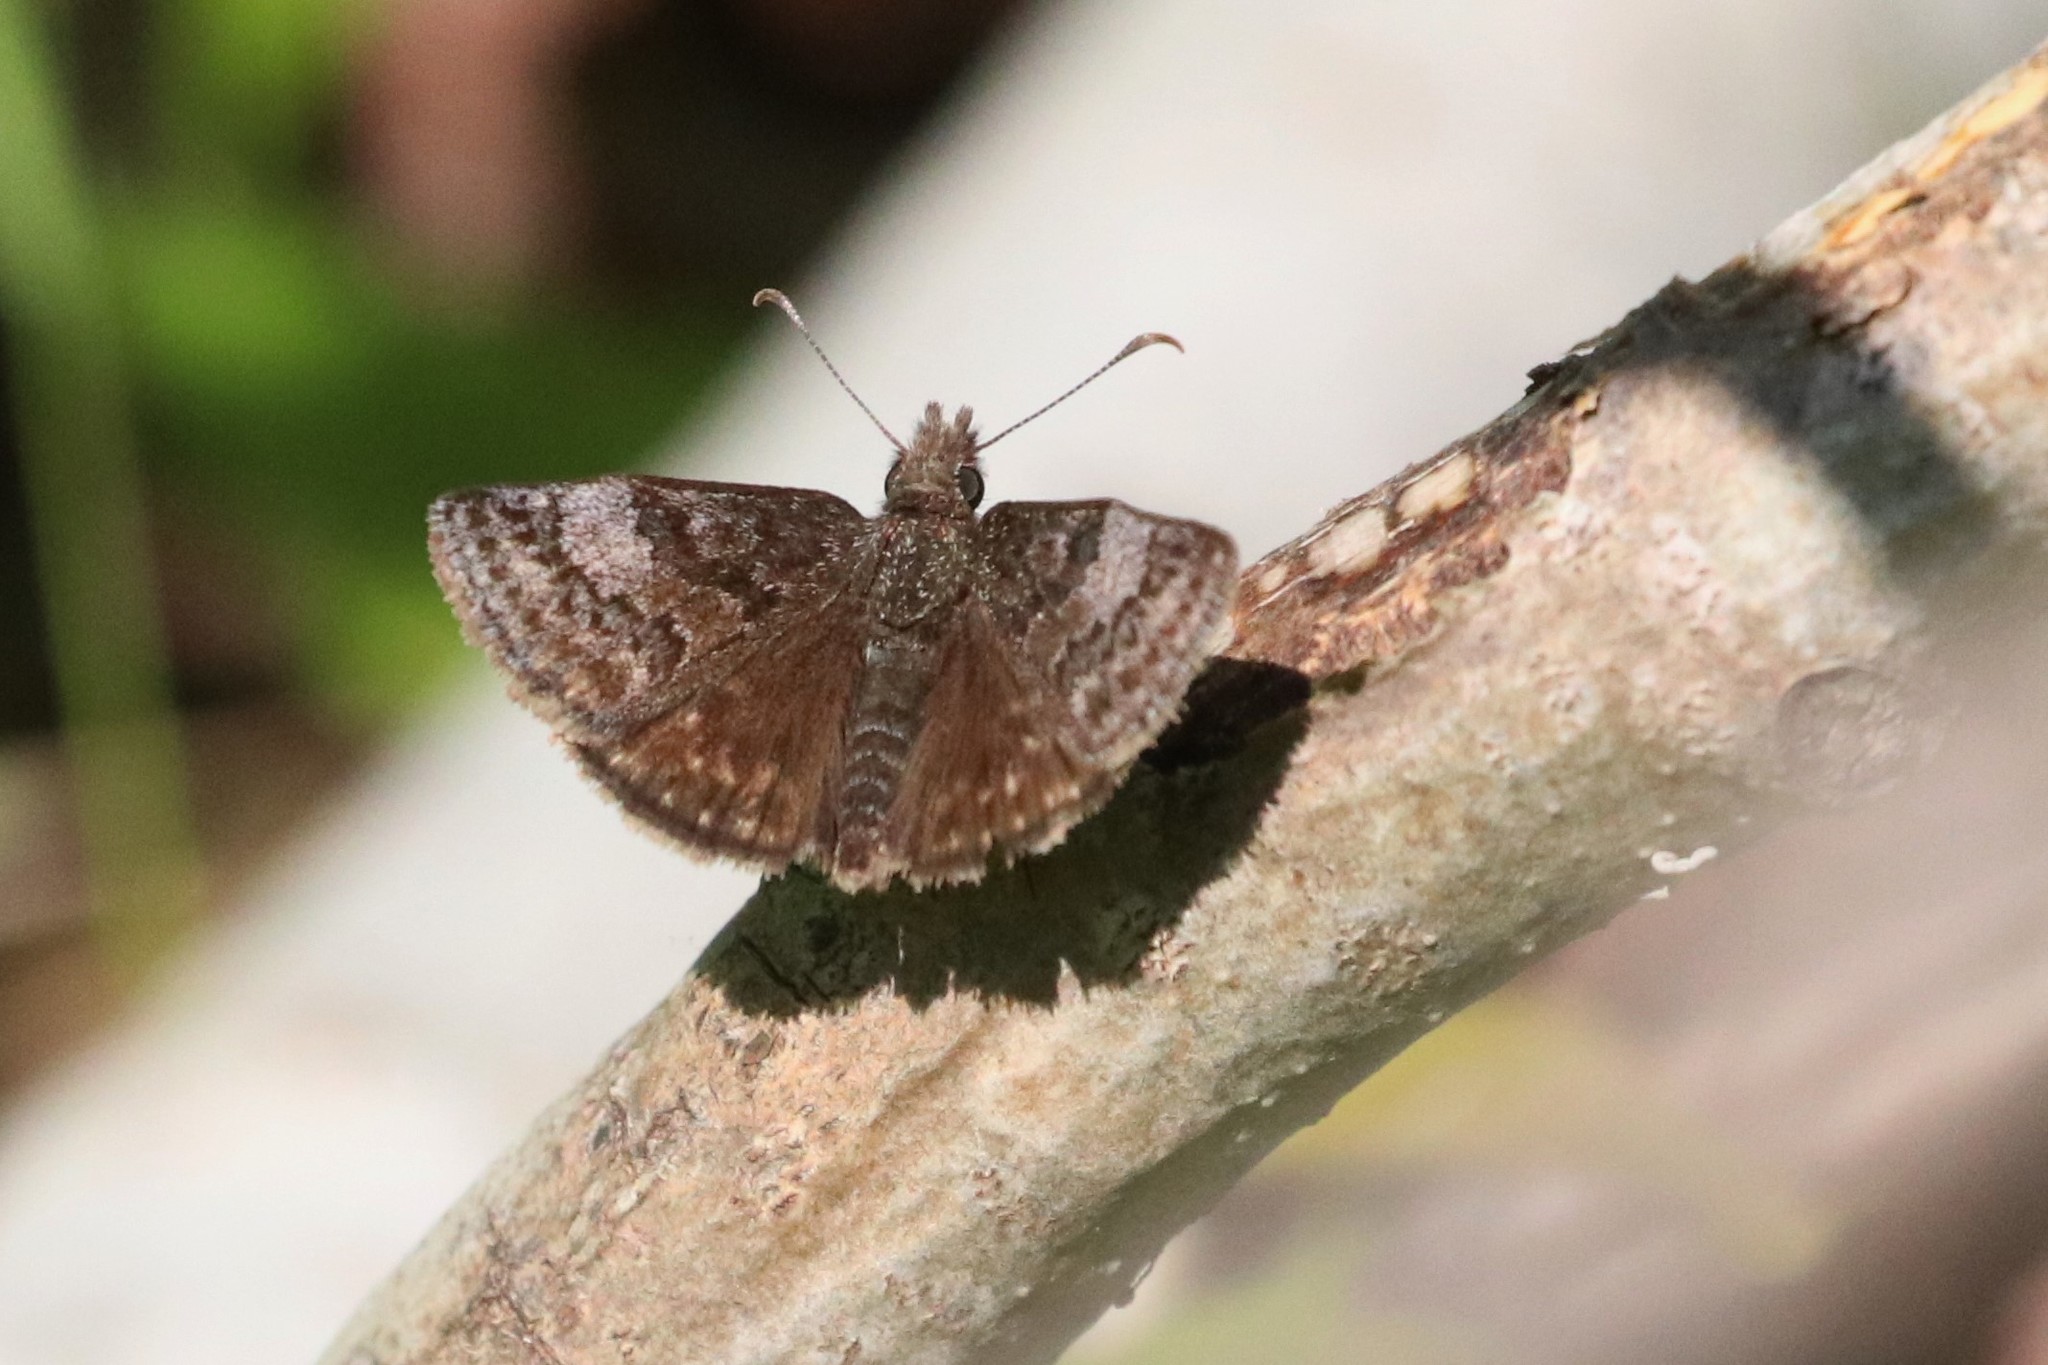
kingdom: Animalia
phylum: Arthropoda
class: Insecta
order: Lepidoptera
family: Hesperiidae
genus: Erynnis
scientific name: Erynnis icelus
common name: Dreamy duskywing
